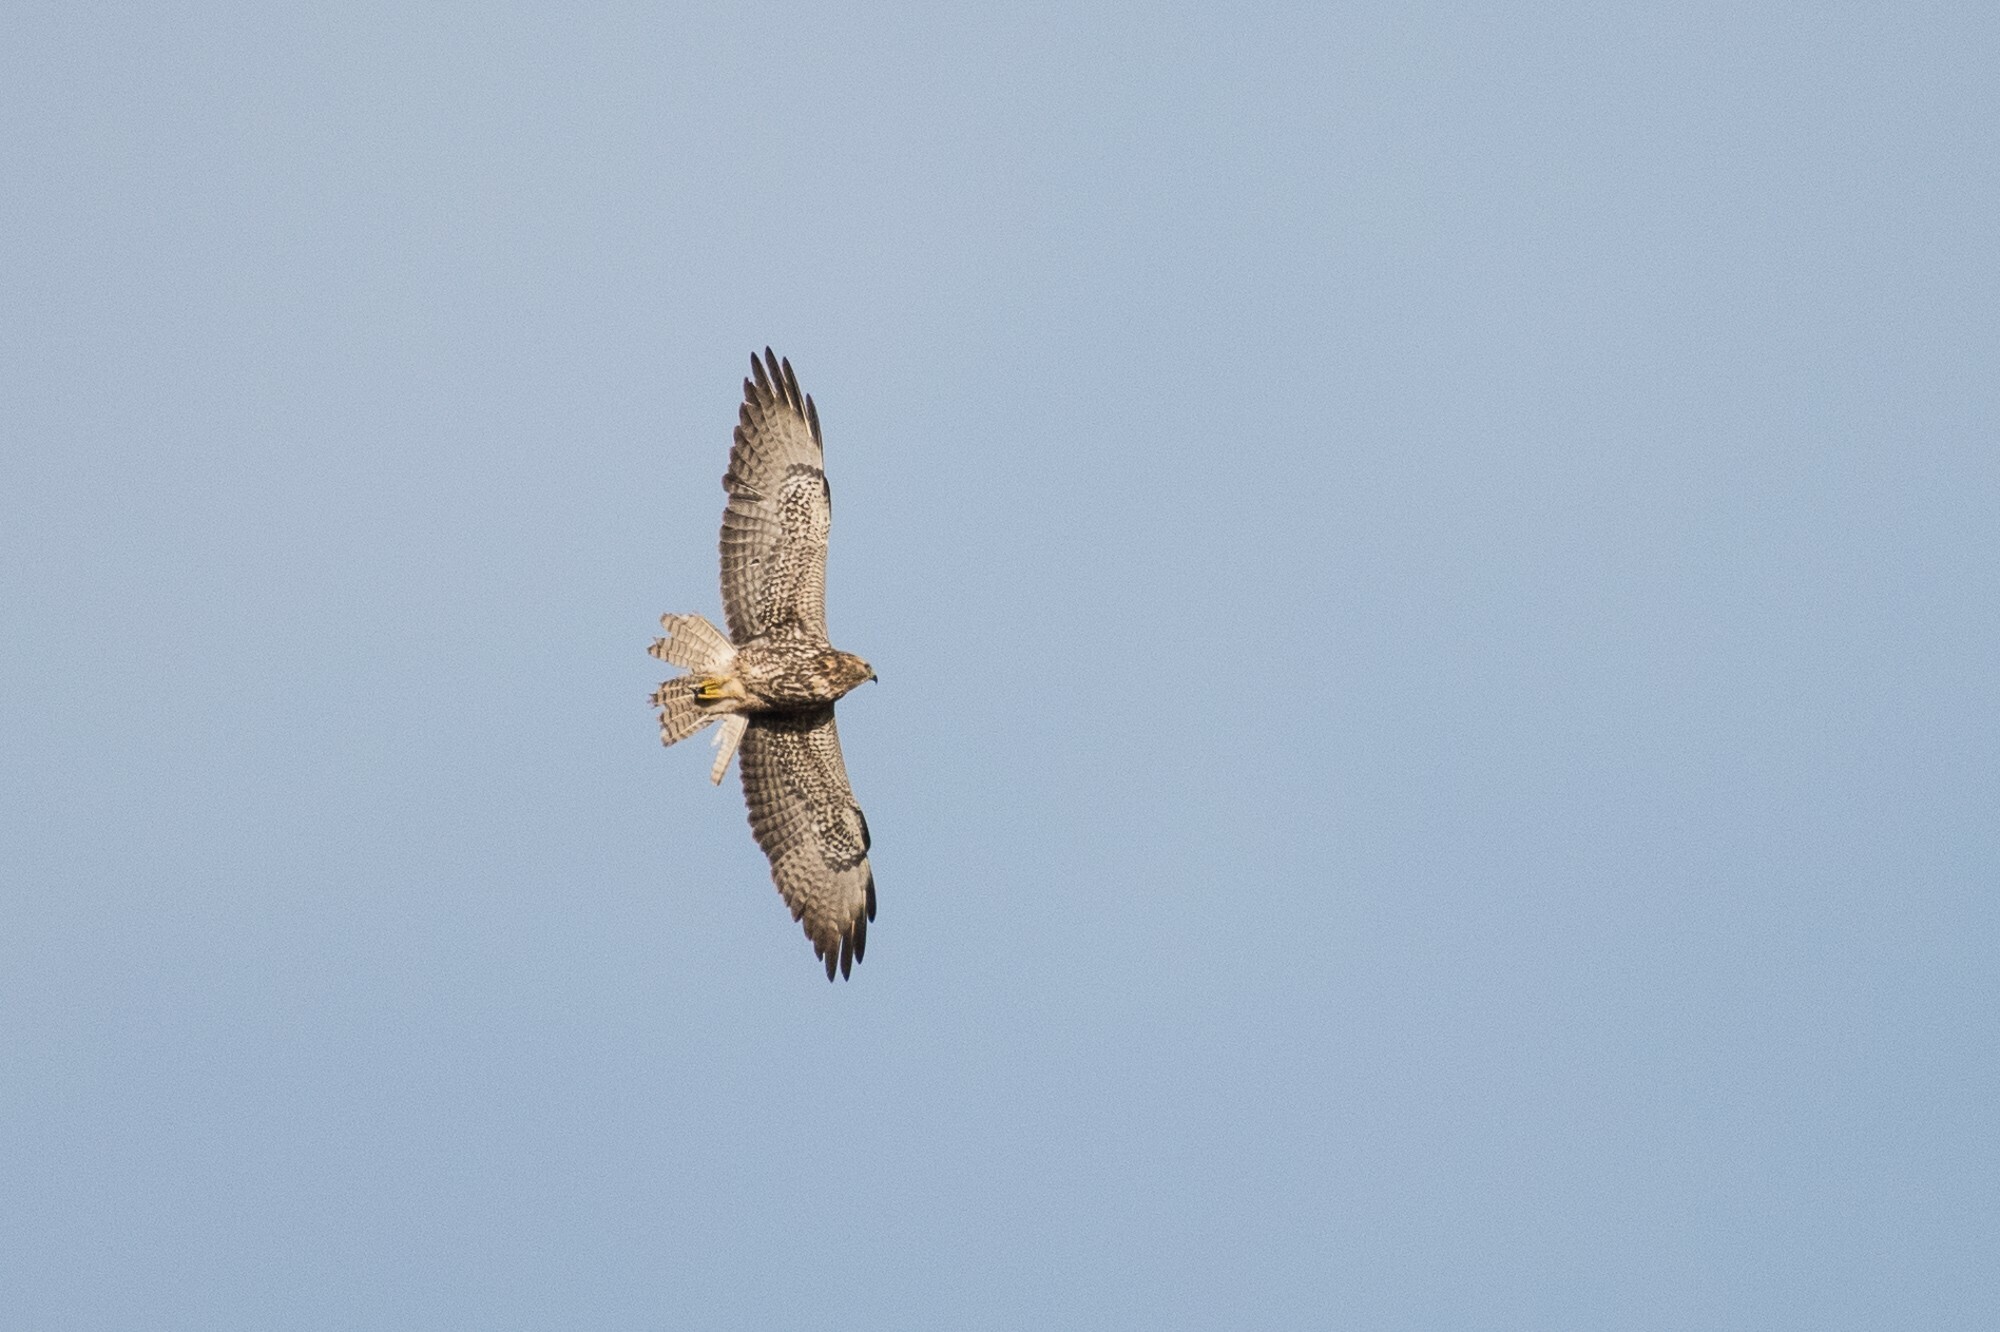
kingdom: Animalia
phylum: Chordata
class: Aves
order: Accipitriformes
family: Accipitridae
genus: Buteo
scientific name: Buteo swainsoni
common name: Swainson's hawk
